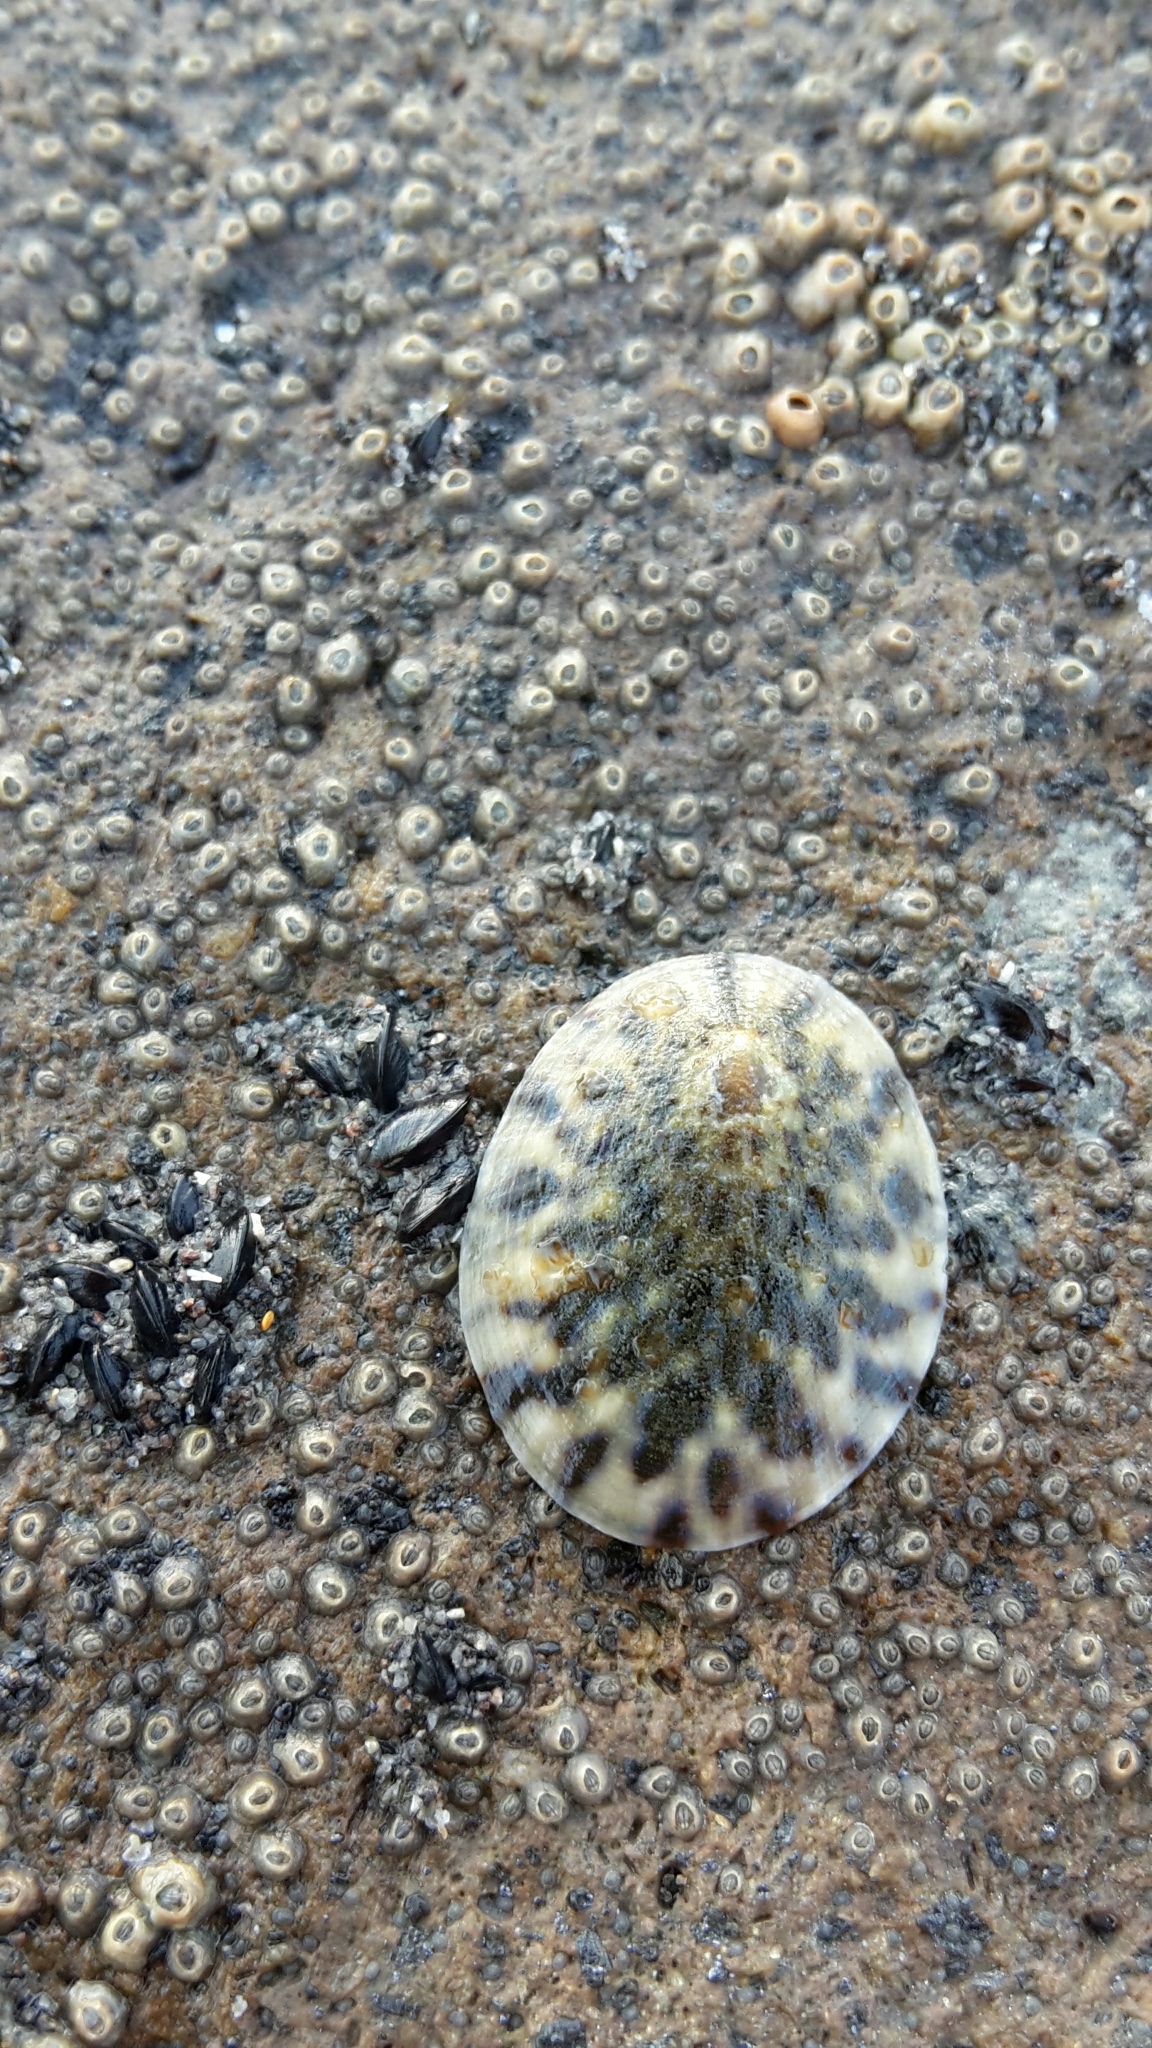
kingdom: Animalia
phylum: Mollusca
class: Gastropoda
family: Nacellidae
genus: Cellana
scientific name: Cellana radians
